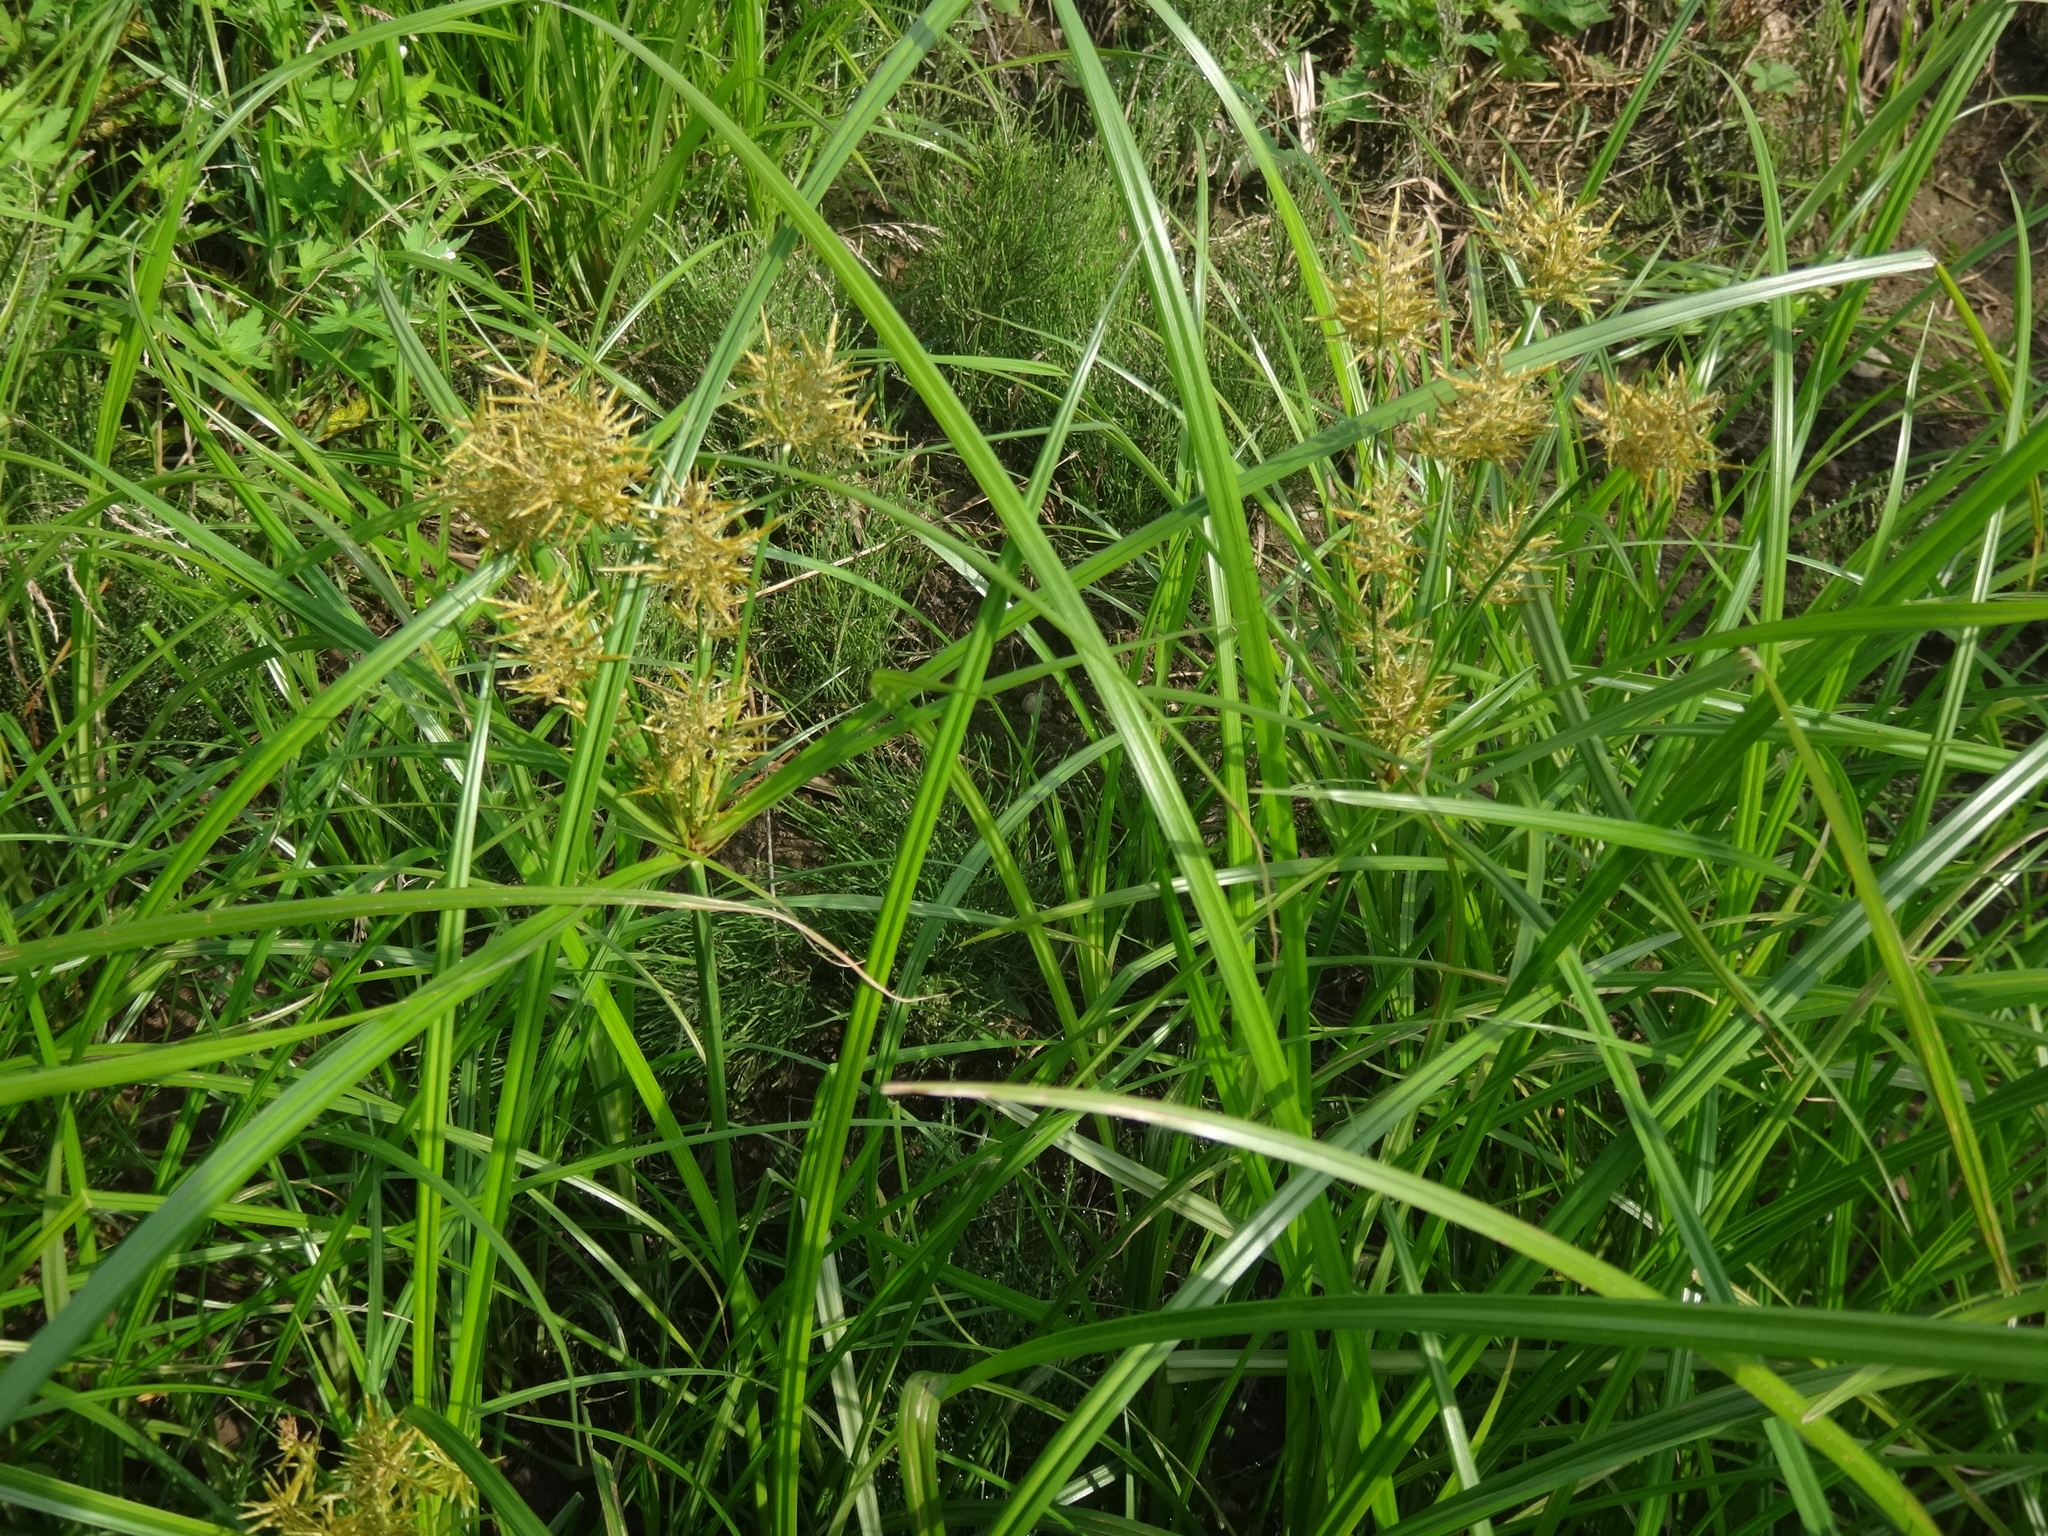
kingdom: Plantae
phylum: Tracheophyta
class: Liliopsida
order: Poales
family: Cyperaceae
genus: Cyperus
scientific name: Cyperus esculentus
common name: Yellow nutsedge
